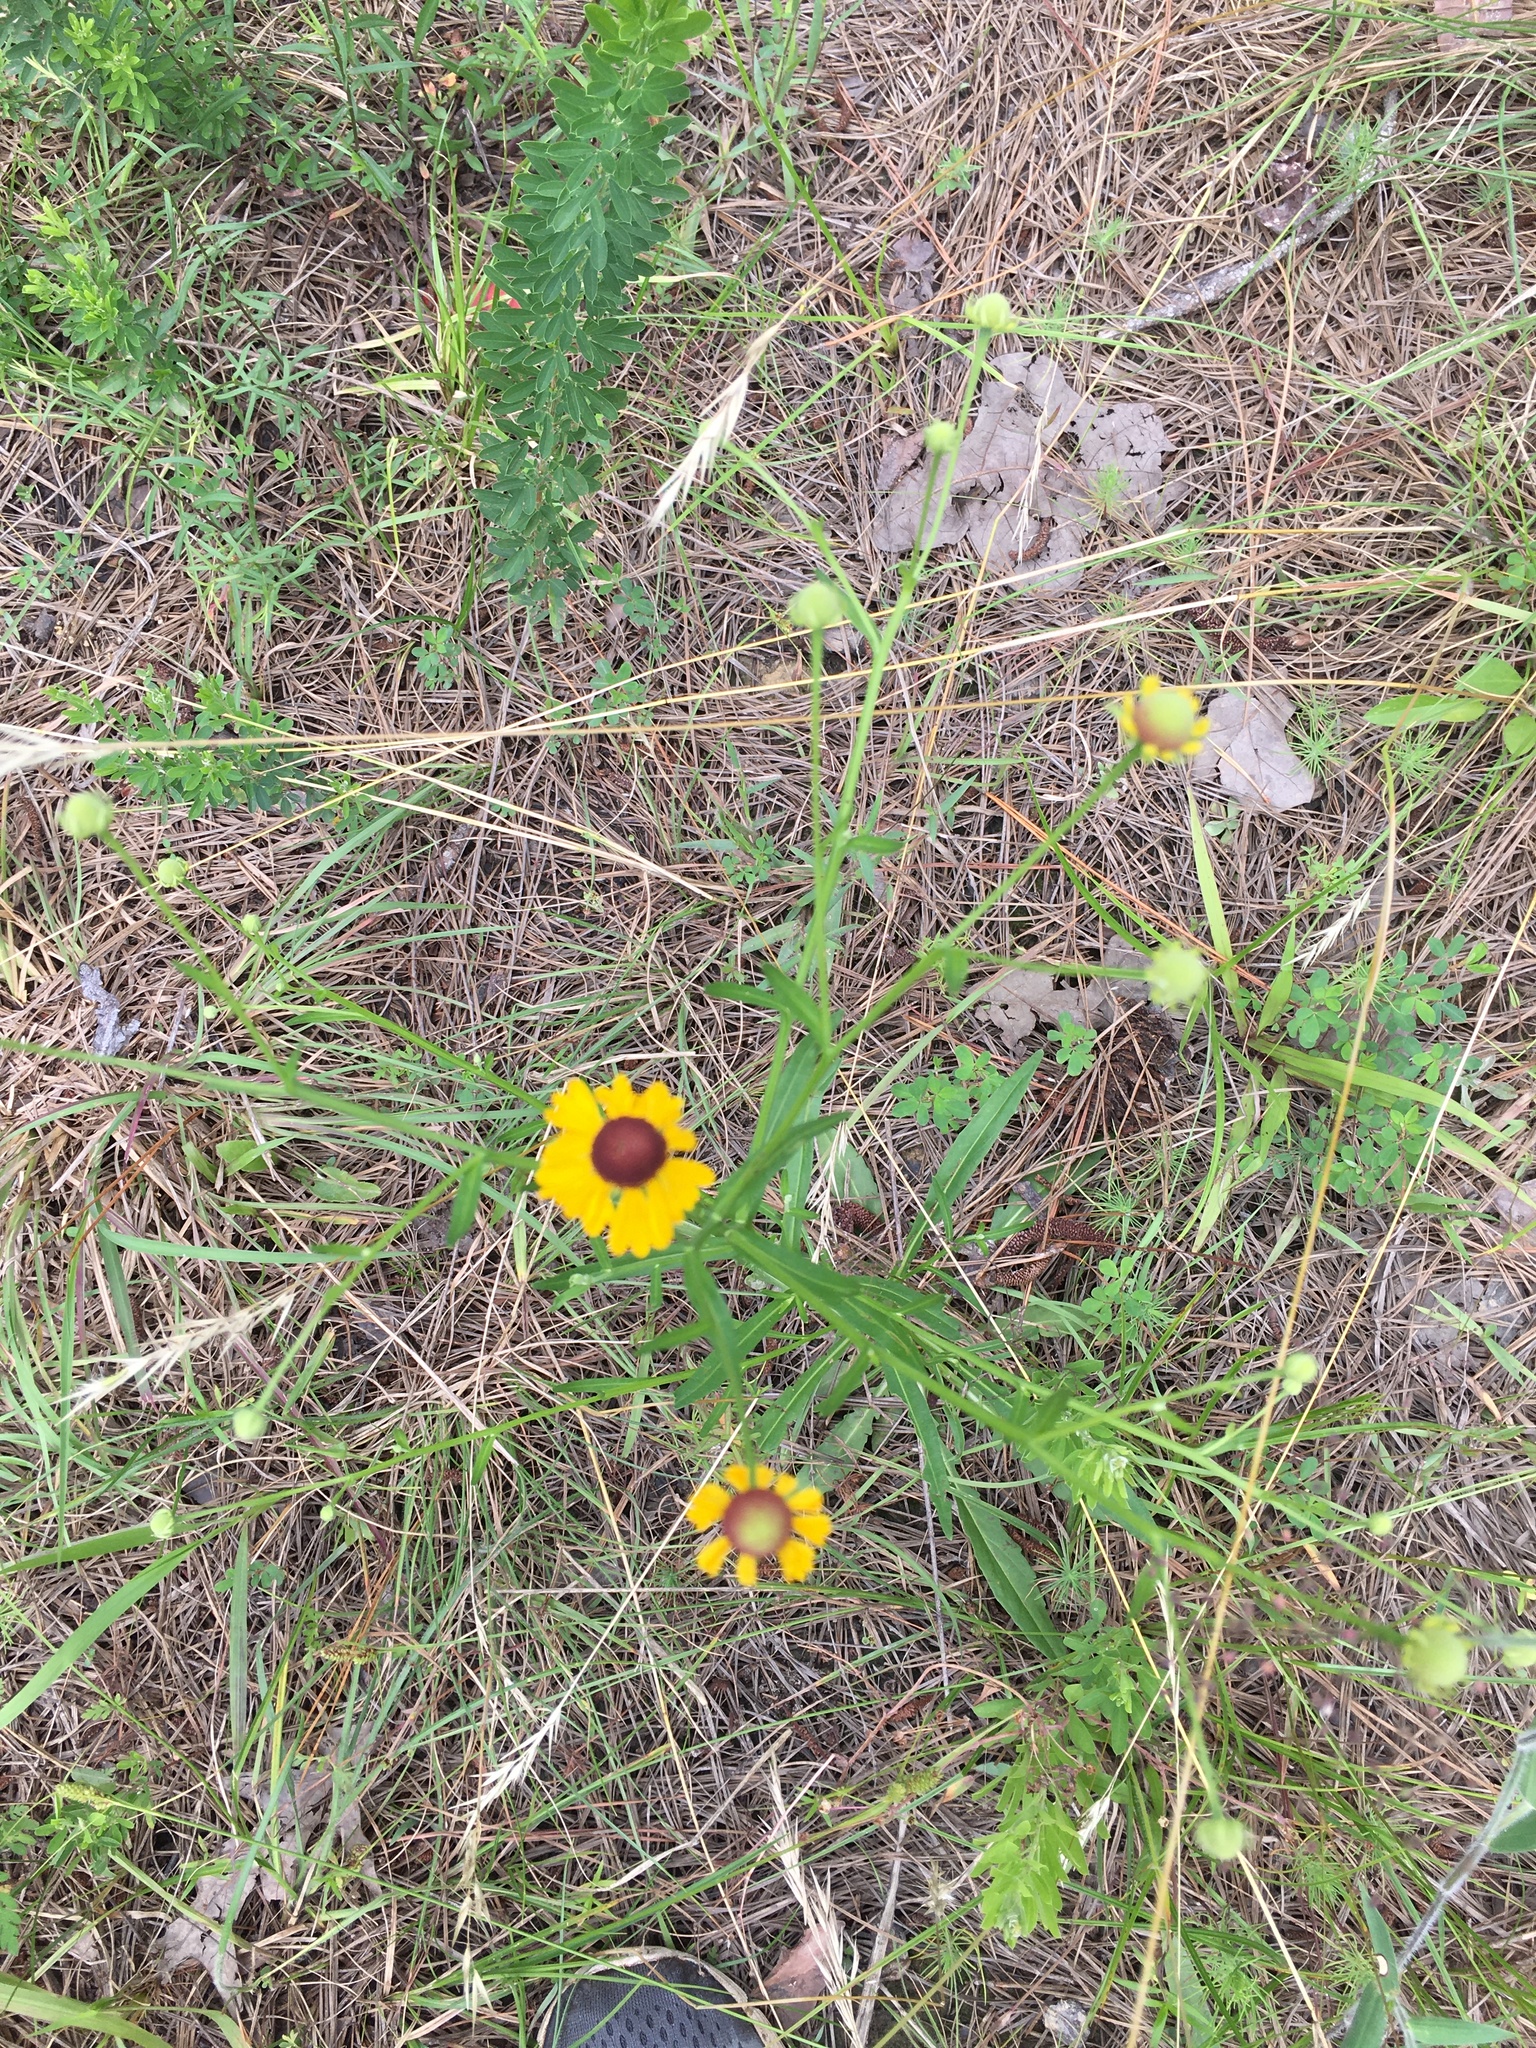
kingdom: Plantae
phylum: Tracheophyta
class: Magnoliopsida
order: Asterales
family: Asteraceae
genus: Helenium
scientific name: Helenium flexuosum
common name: Naked-flowered sneezeweed
